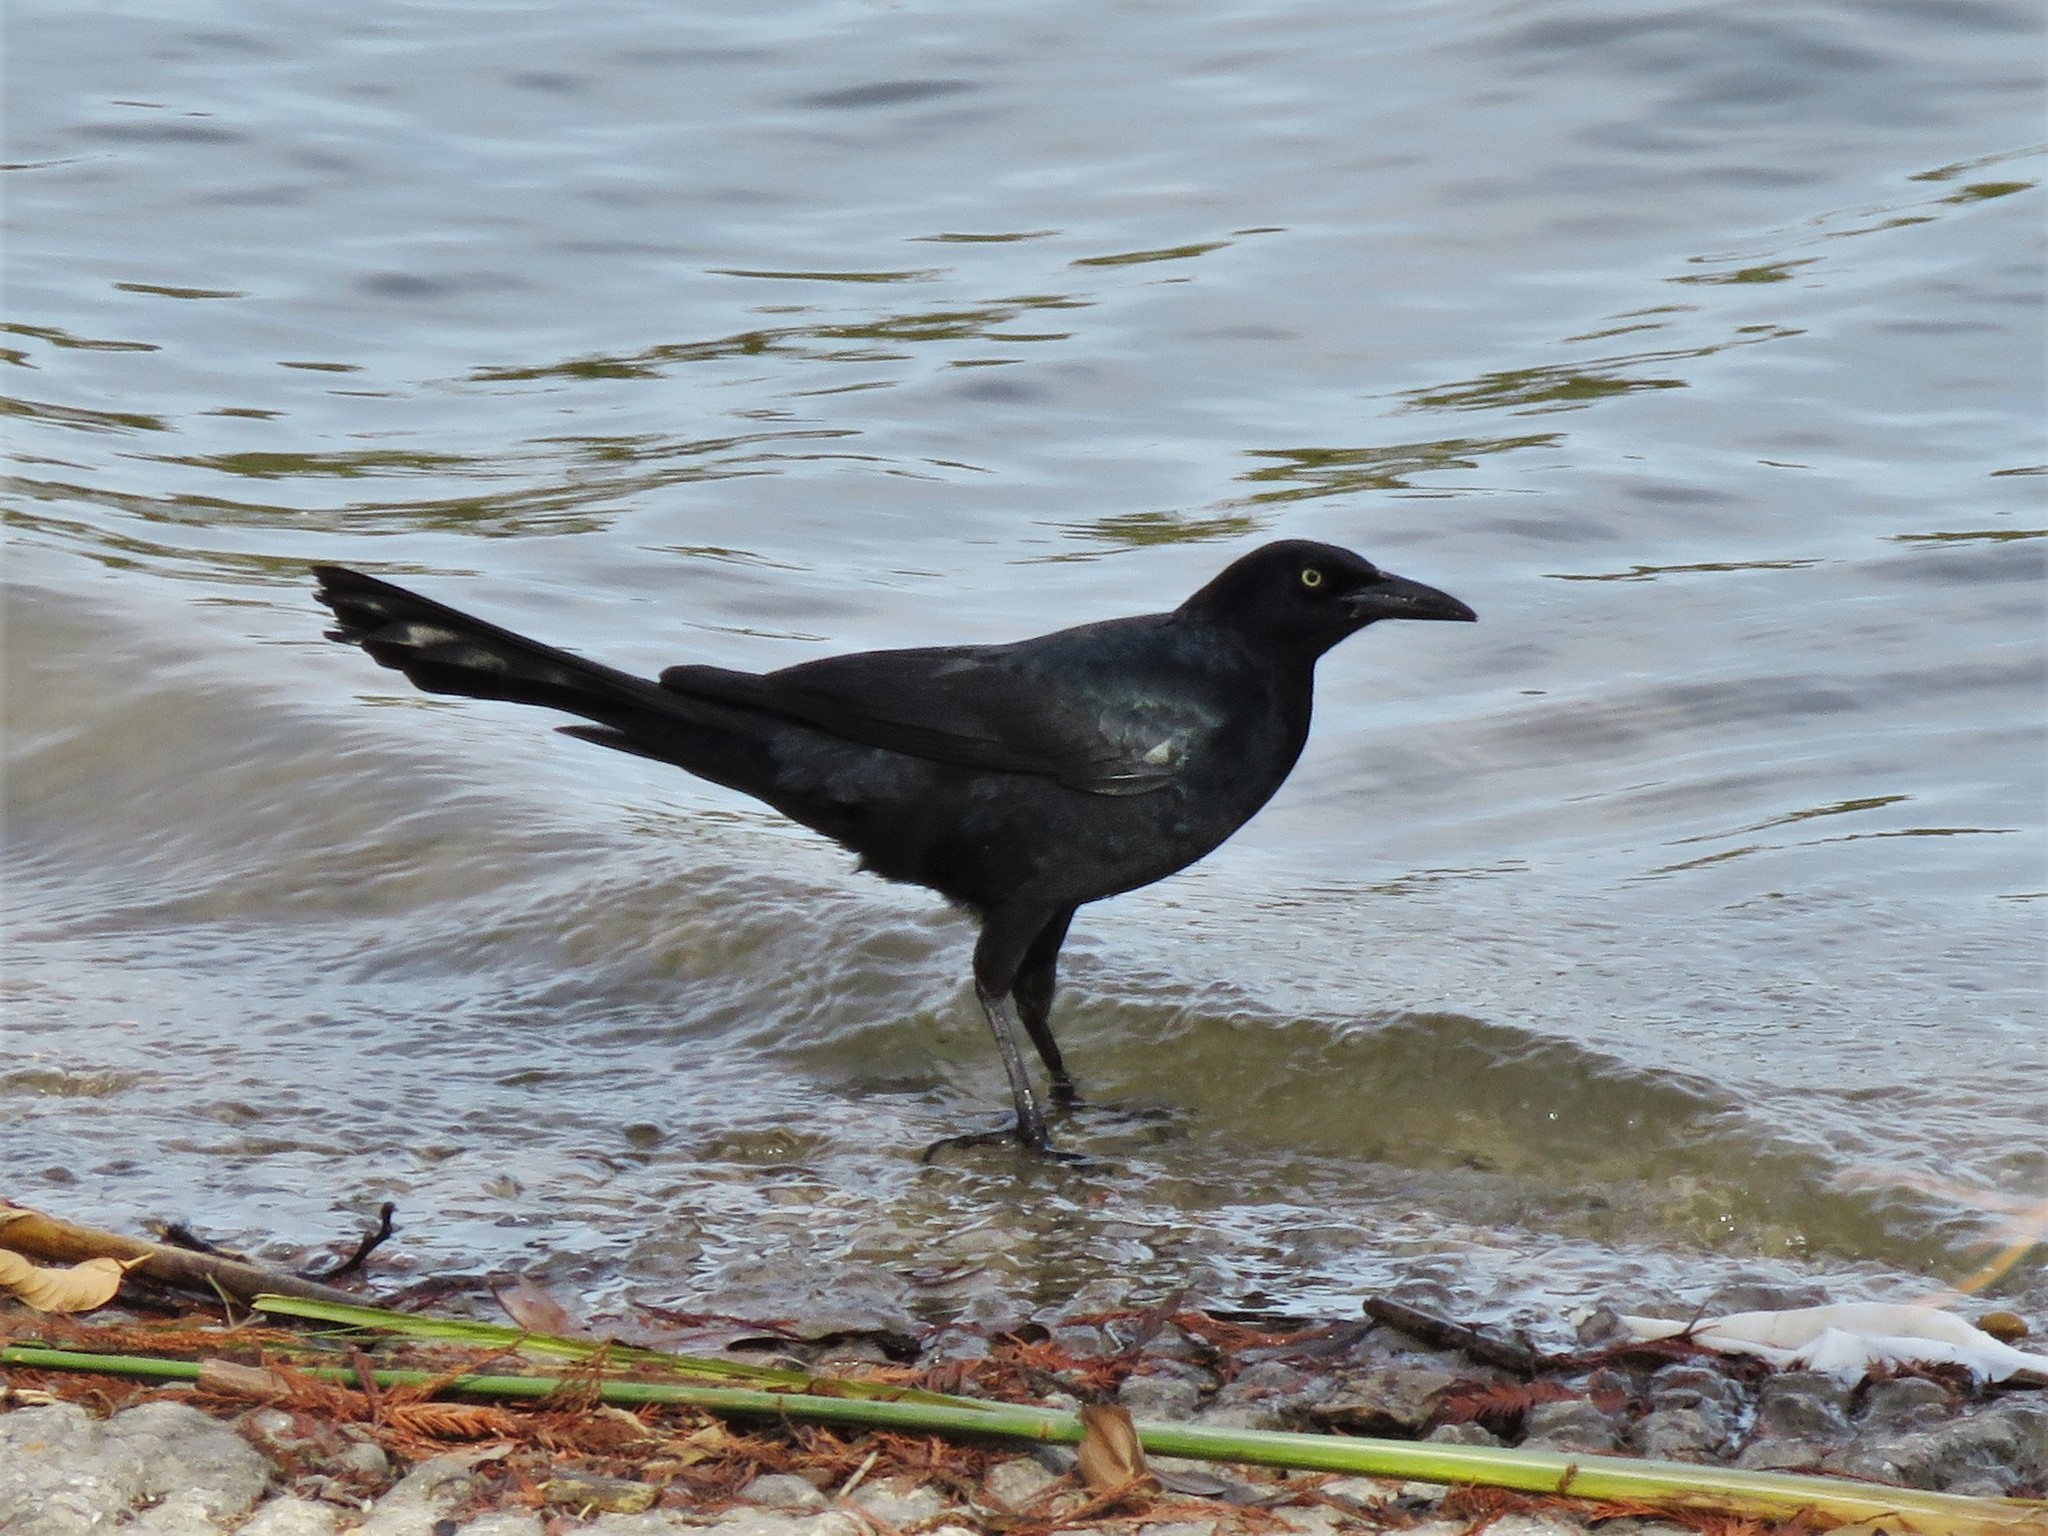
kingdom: Animalia
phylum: Chordata
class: Aves
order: Passeriformes
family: Icteridae
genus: Quiscalus
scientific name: Quiscalus mexicanus
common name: Great-tailed grackle
